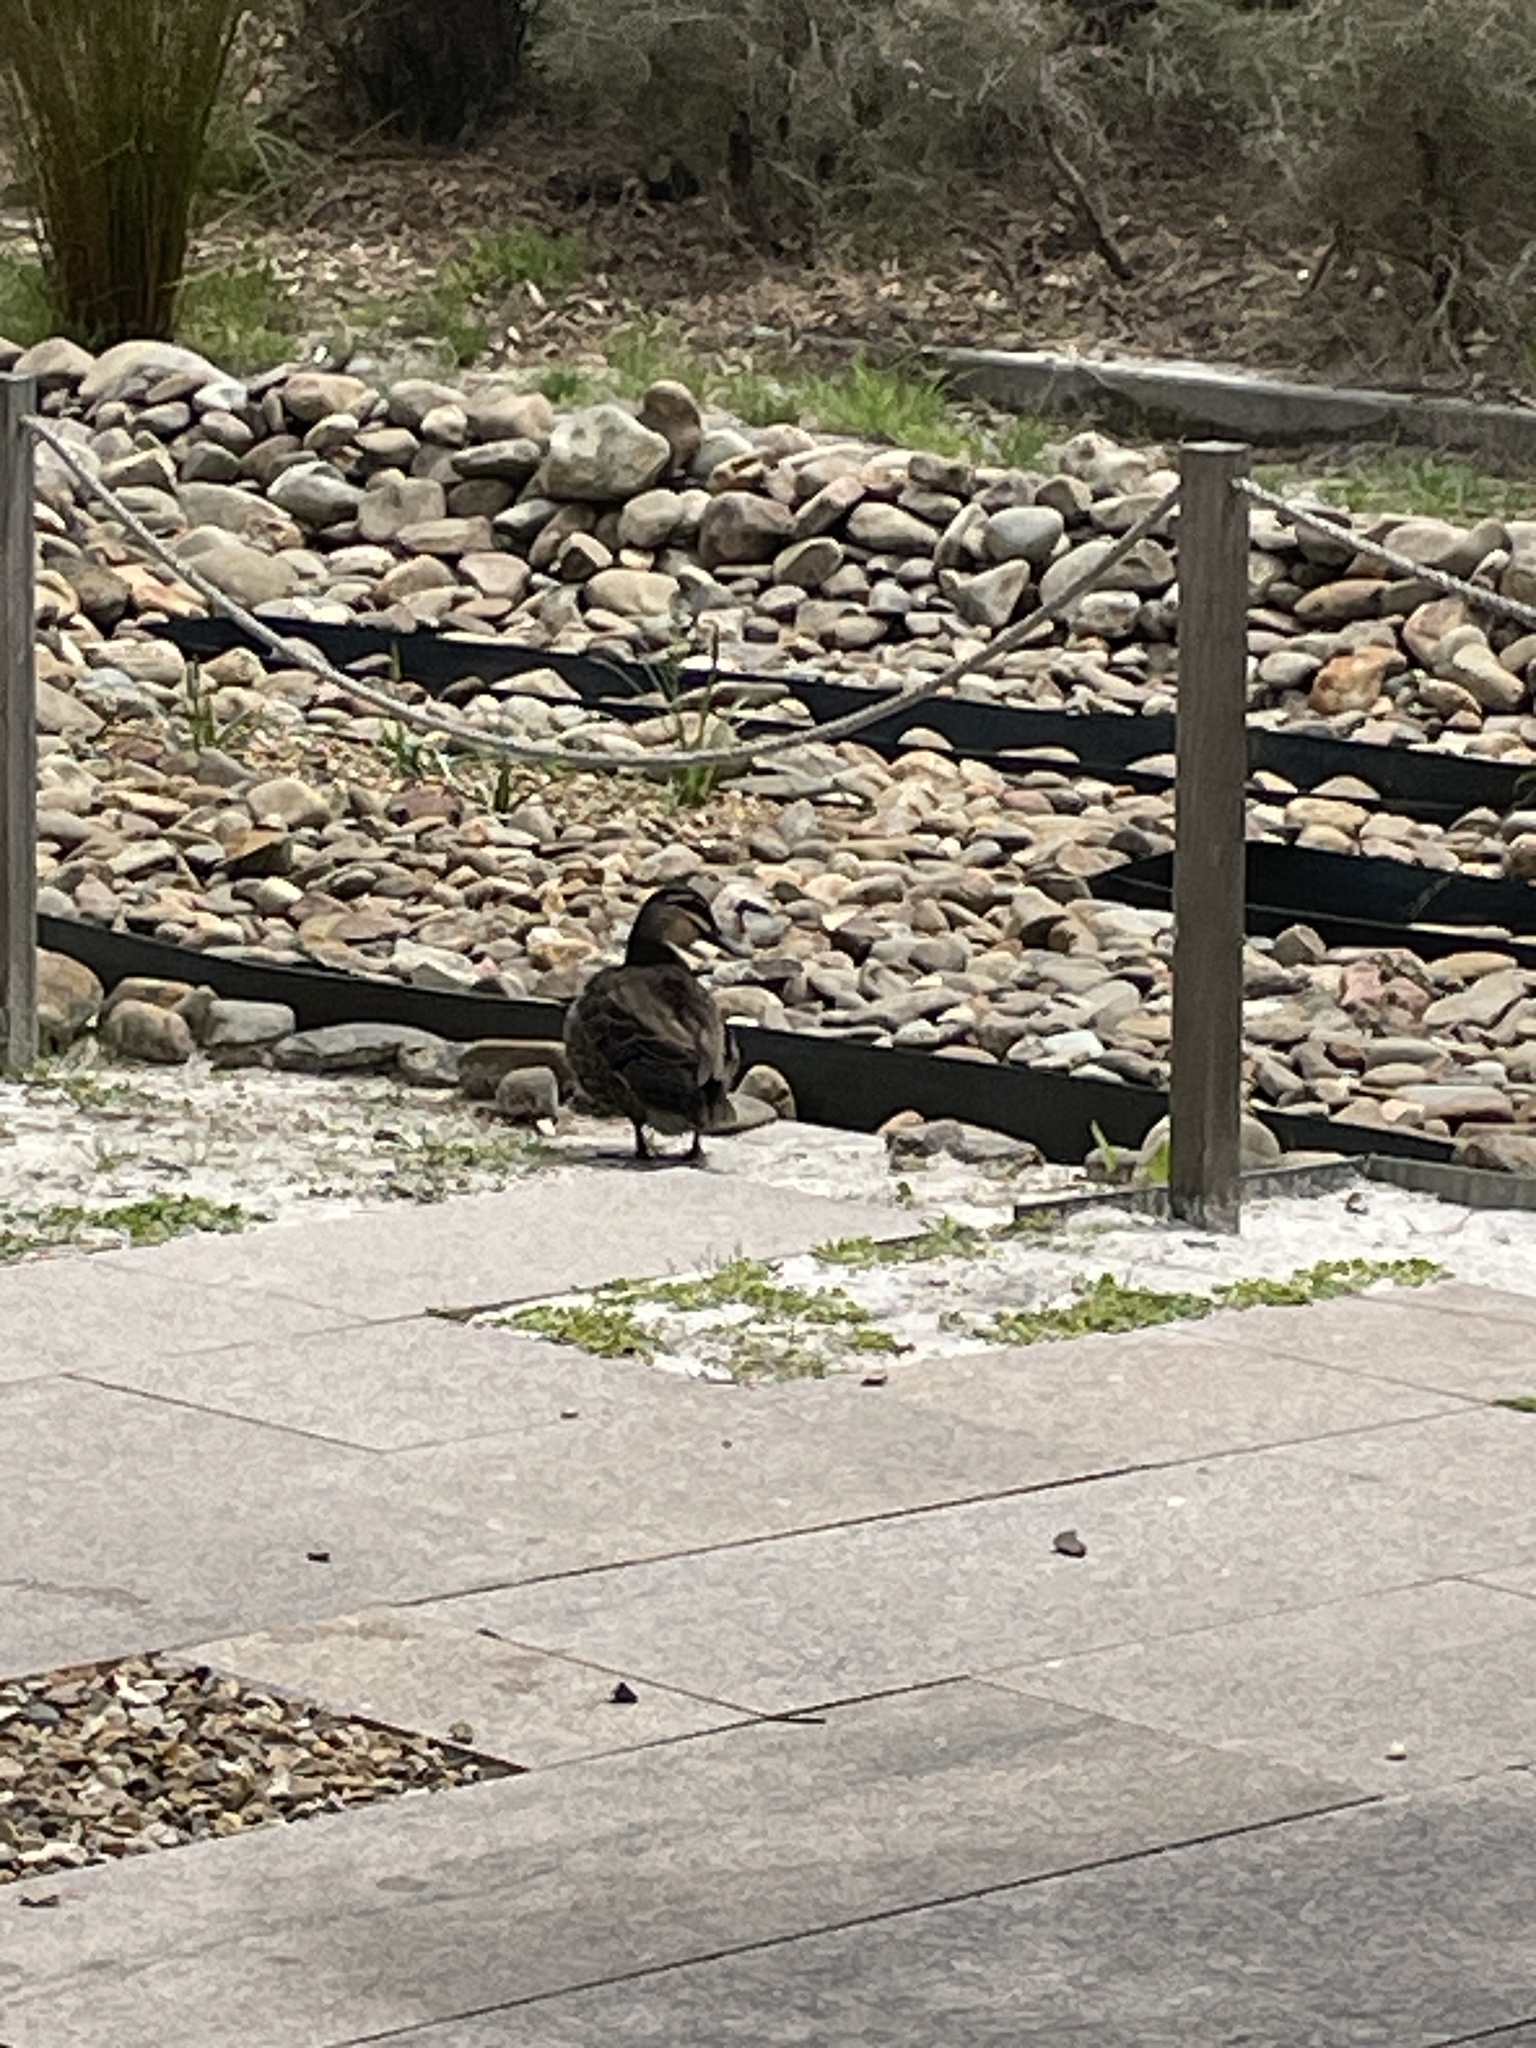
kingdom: Animalia
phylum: Chordata
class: Aves
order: Anseriformes
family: Anatidae
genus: Anas
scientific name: Anas superciliosa
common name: Pacific black duck
